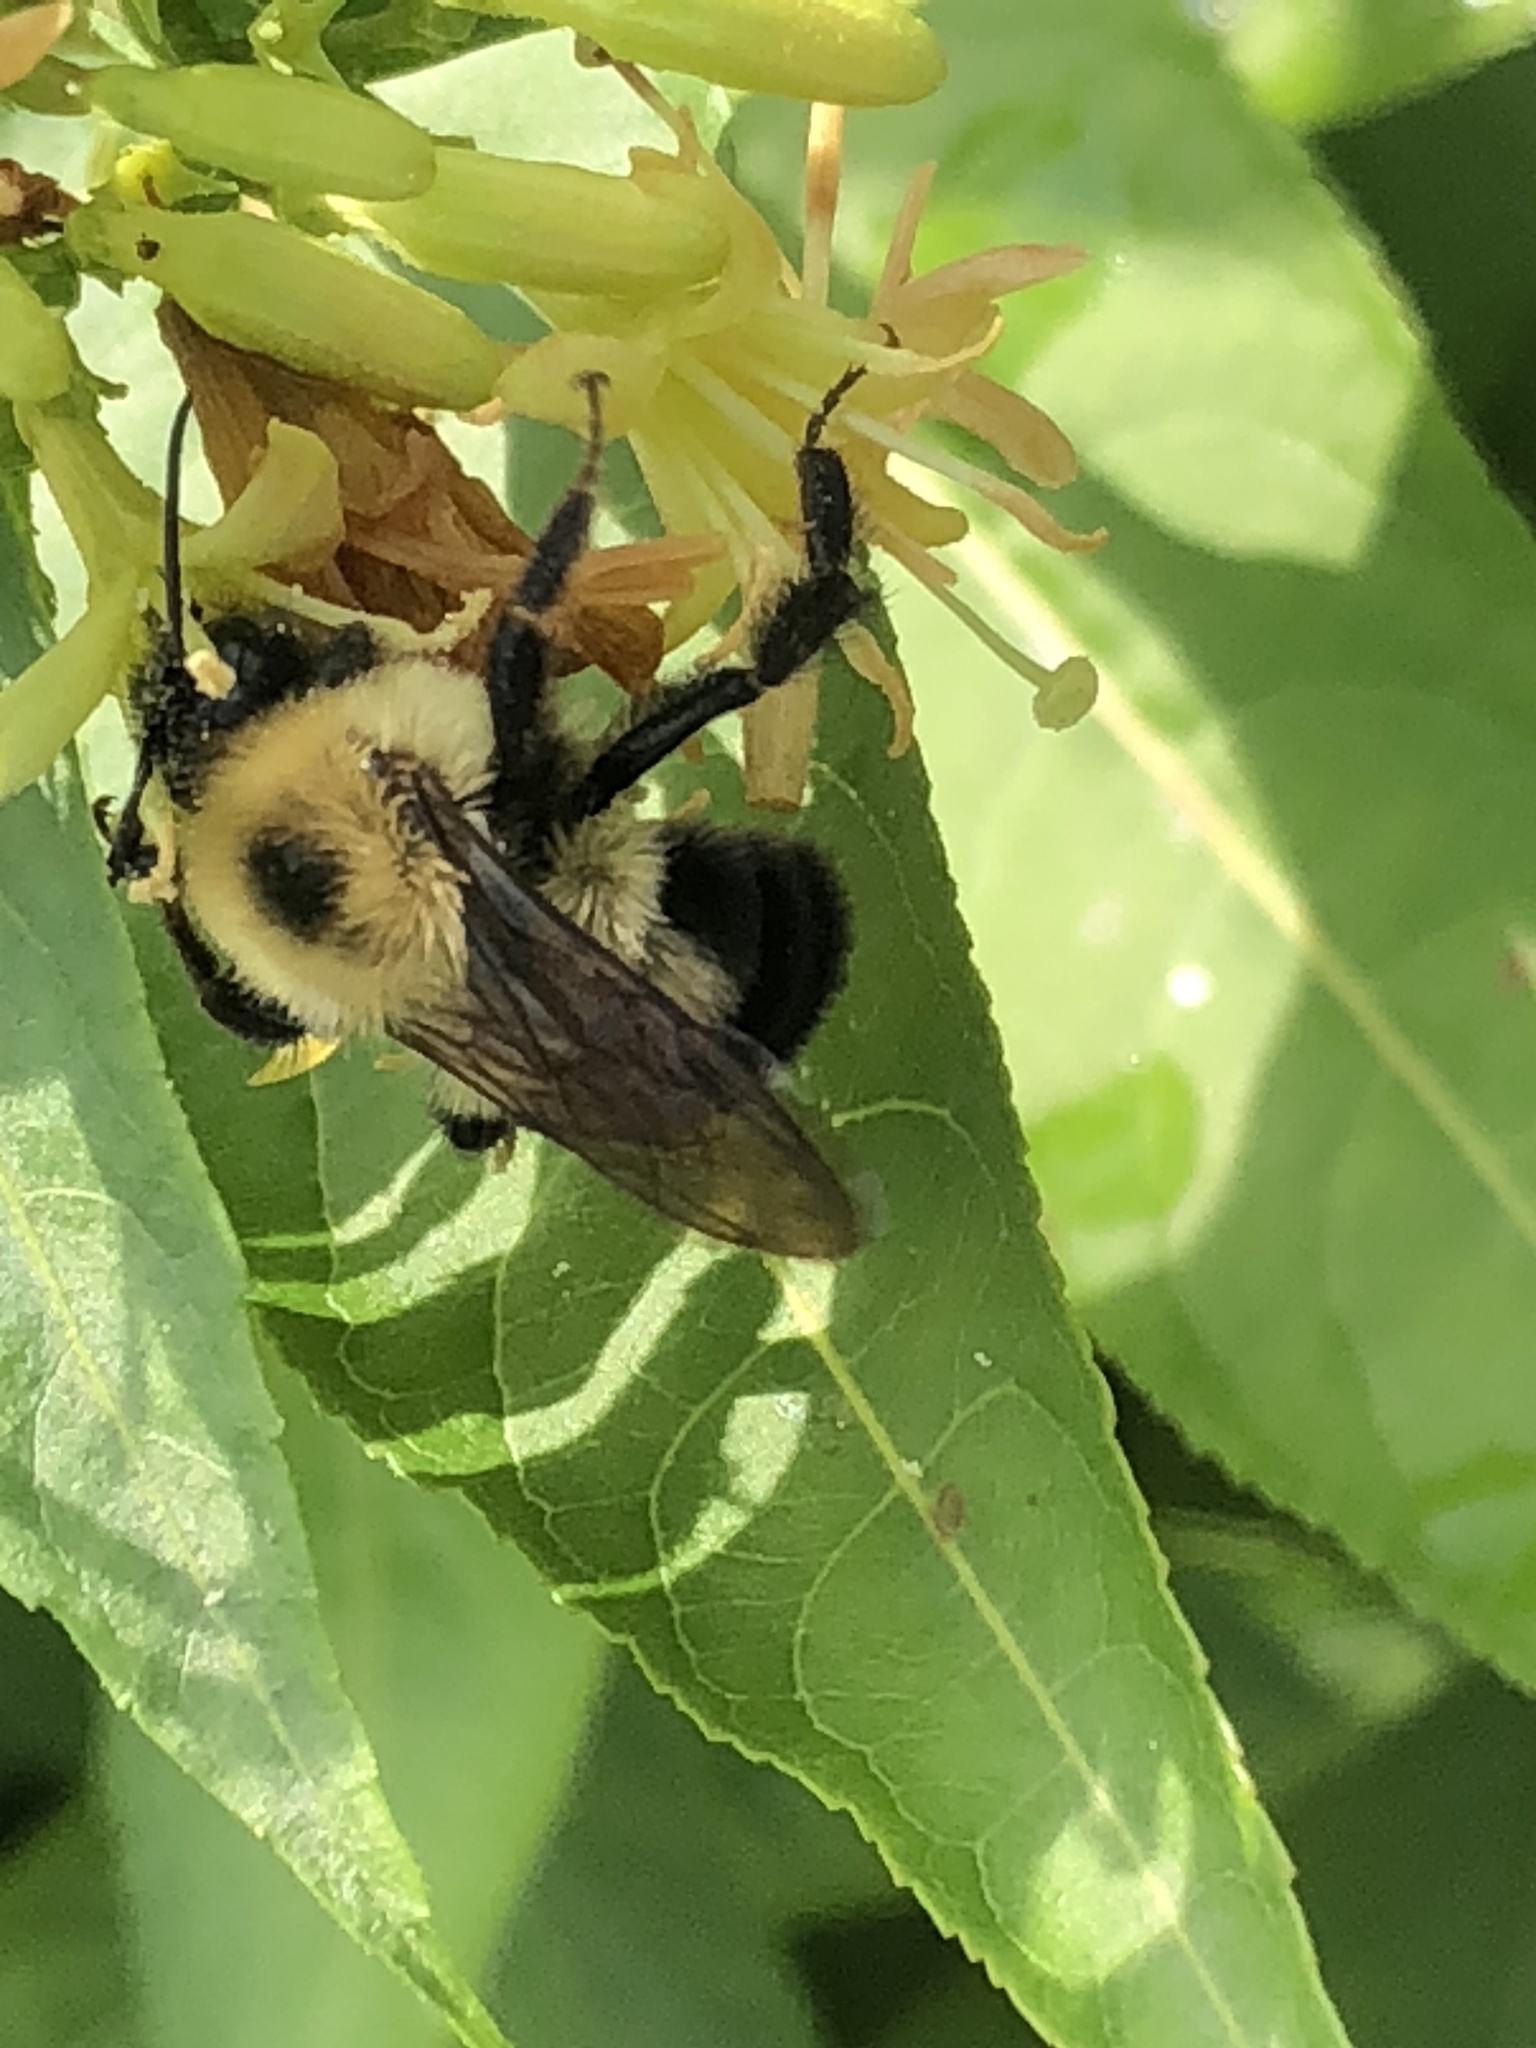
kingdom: Animalia
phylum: Arthropoda
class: Insecta
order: Hymenoptera
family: Apidae
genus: Bombus
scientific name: Bombus bimaculatus
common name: Two-spotted bumble bee
